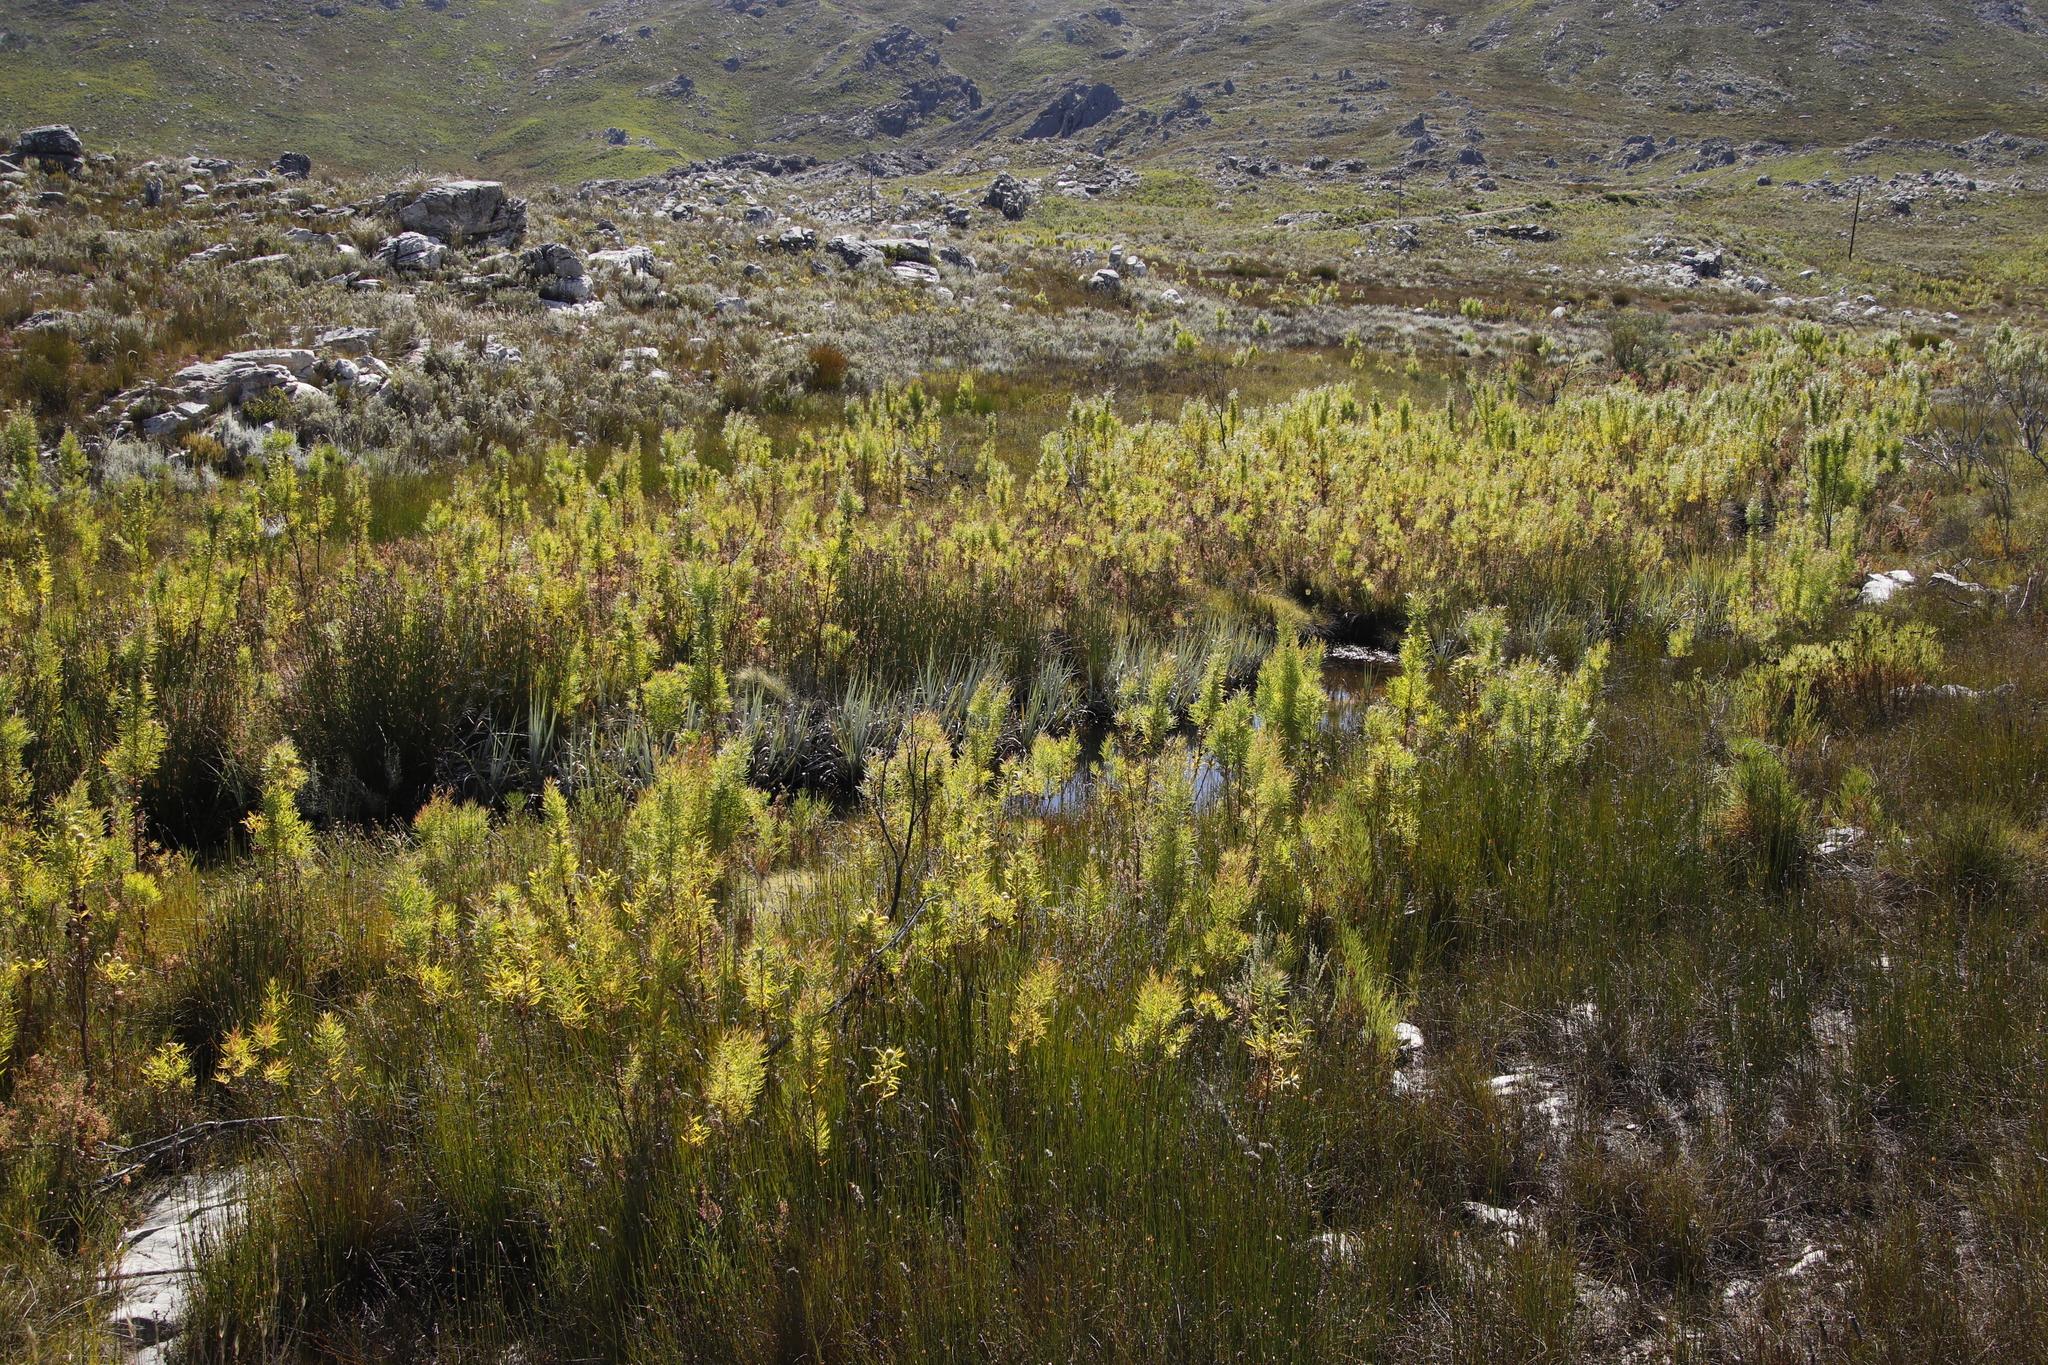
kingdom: Plantae
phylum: Tracheophyta
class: Liliopsida
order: Poales
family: Thurniaceae
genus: Prionium
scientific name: Prionium serratum
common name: Palmiet
